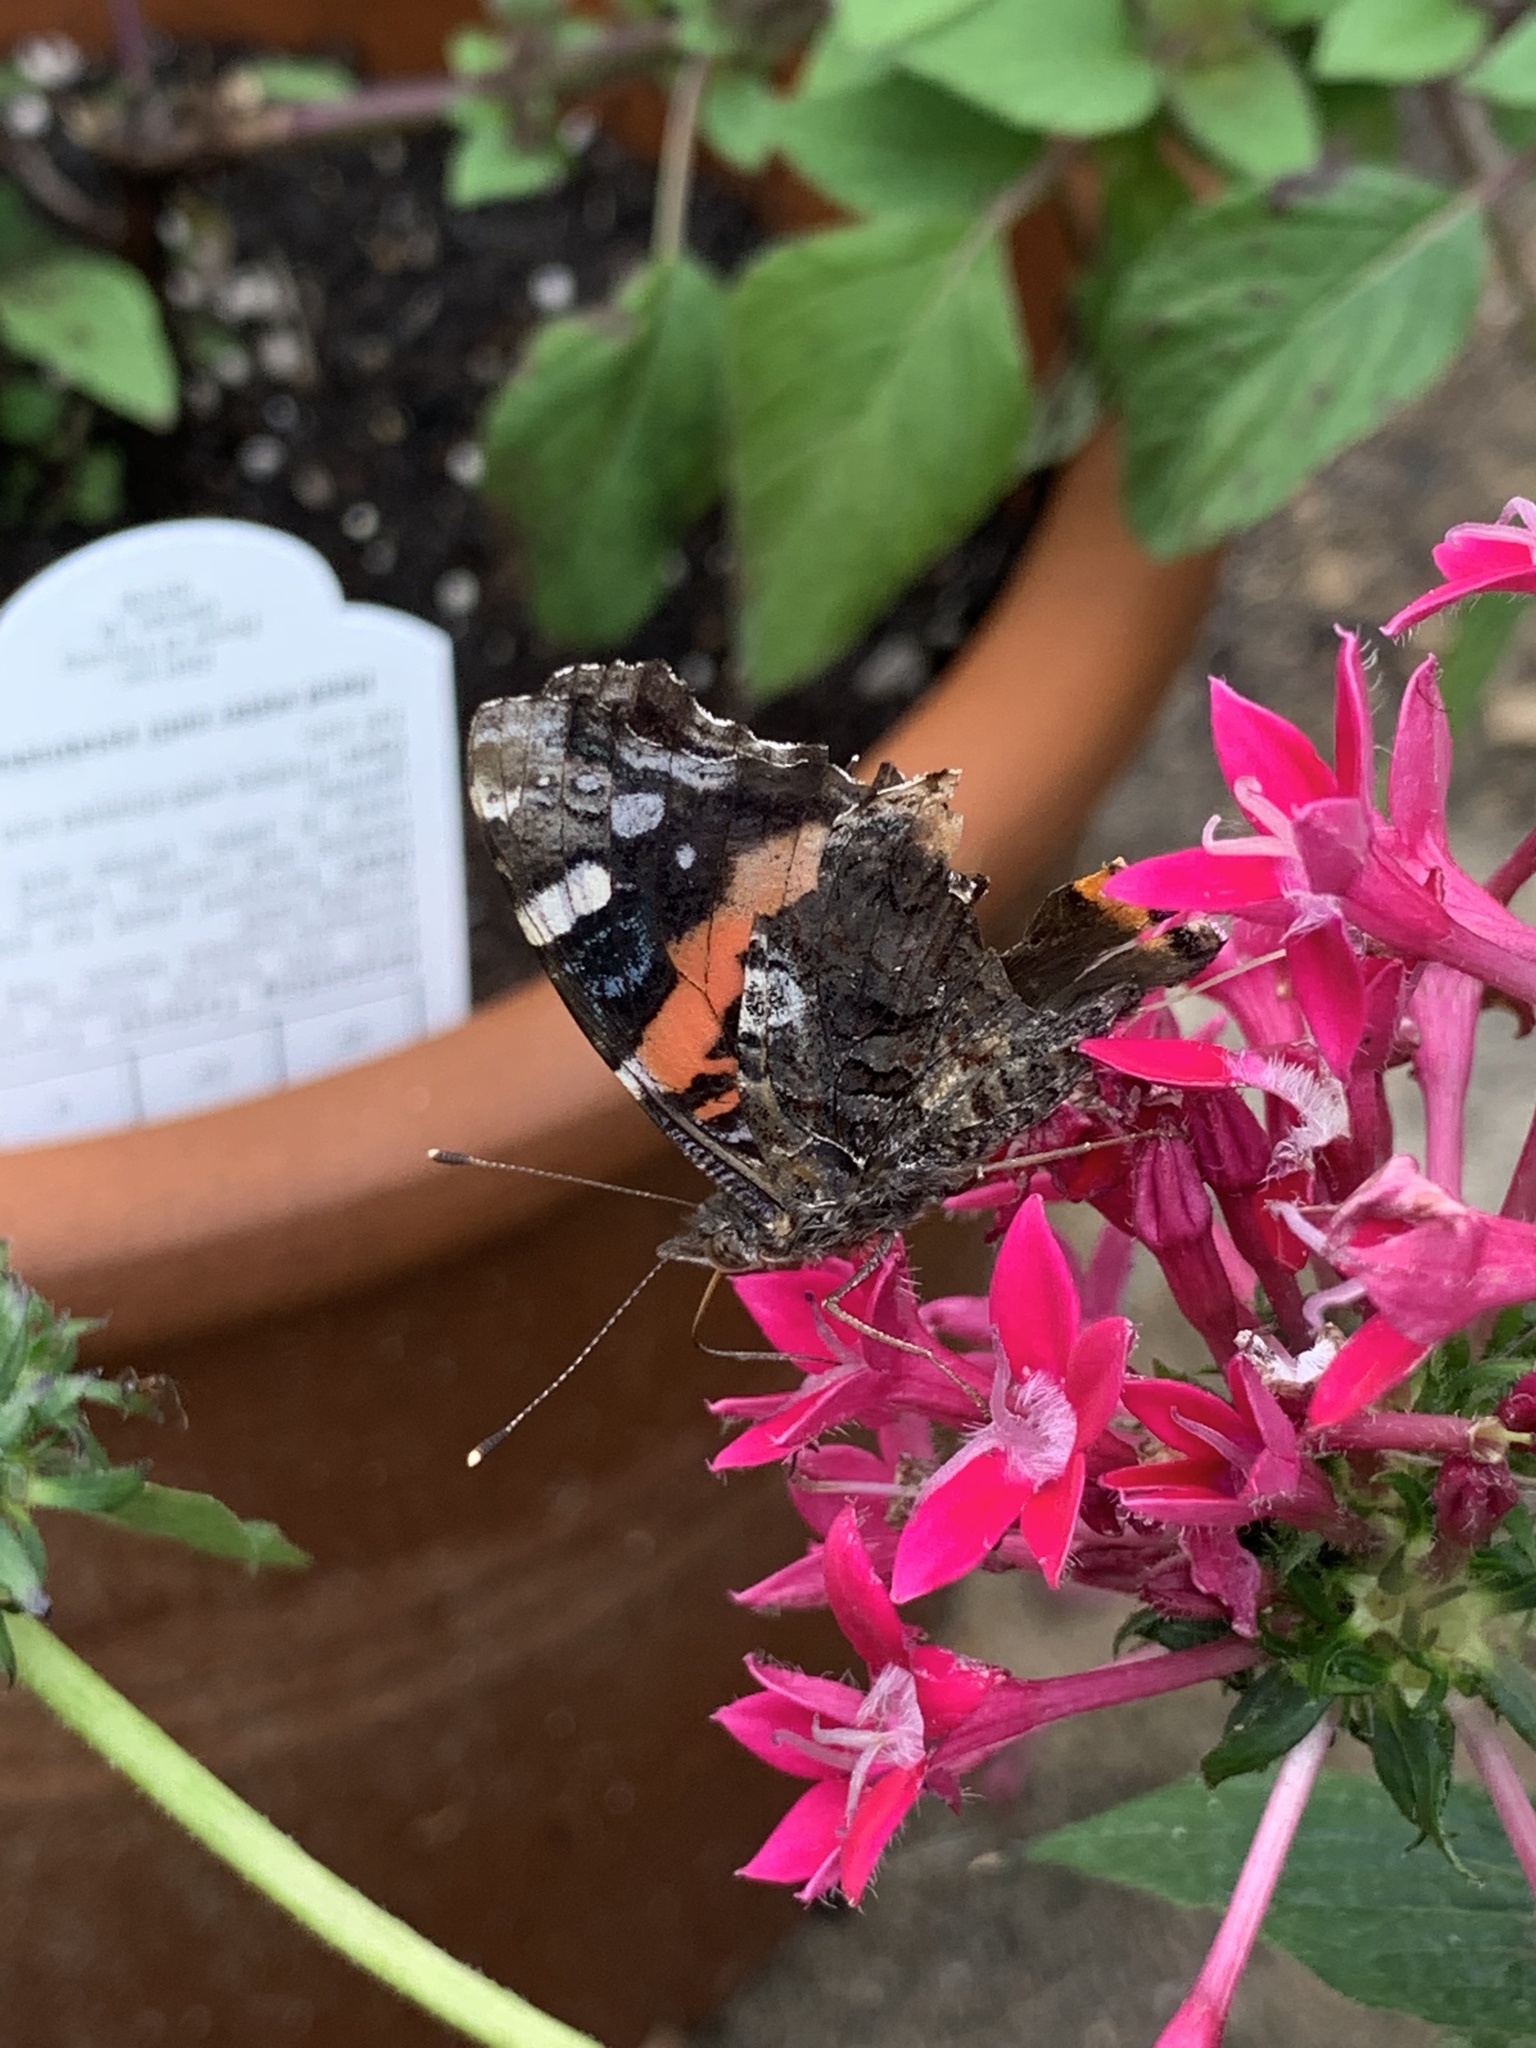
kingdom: Animalia
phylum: Arthropoda
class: Insecta
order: Lepidoptera
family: Nymphalidae
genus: Vanessa
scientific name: Vanessa atalanta
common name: Red admiral
